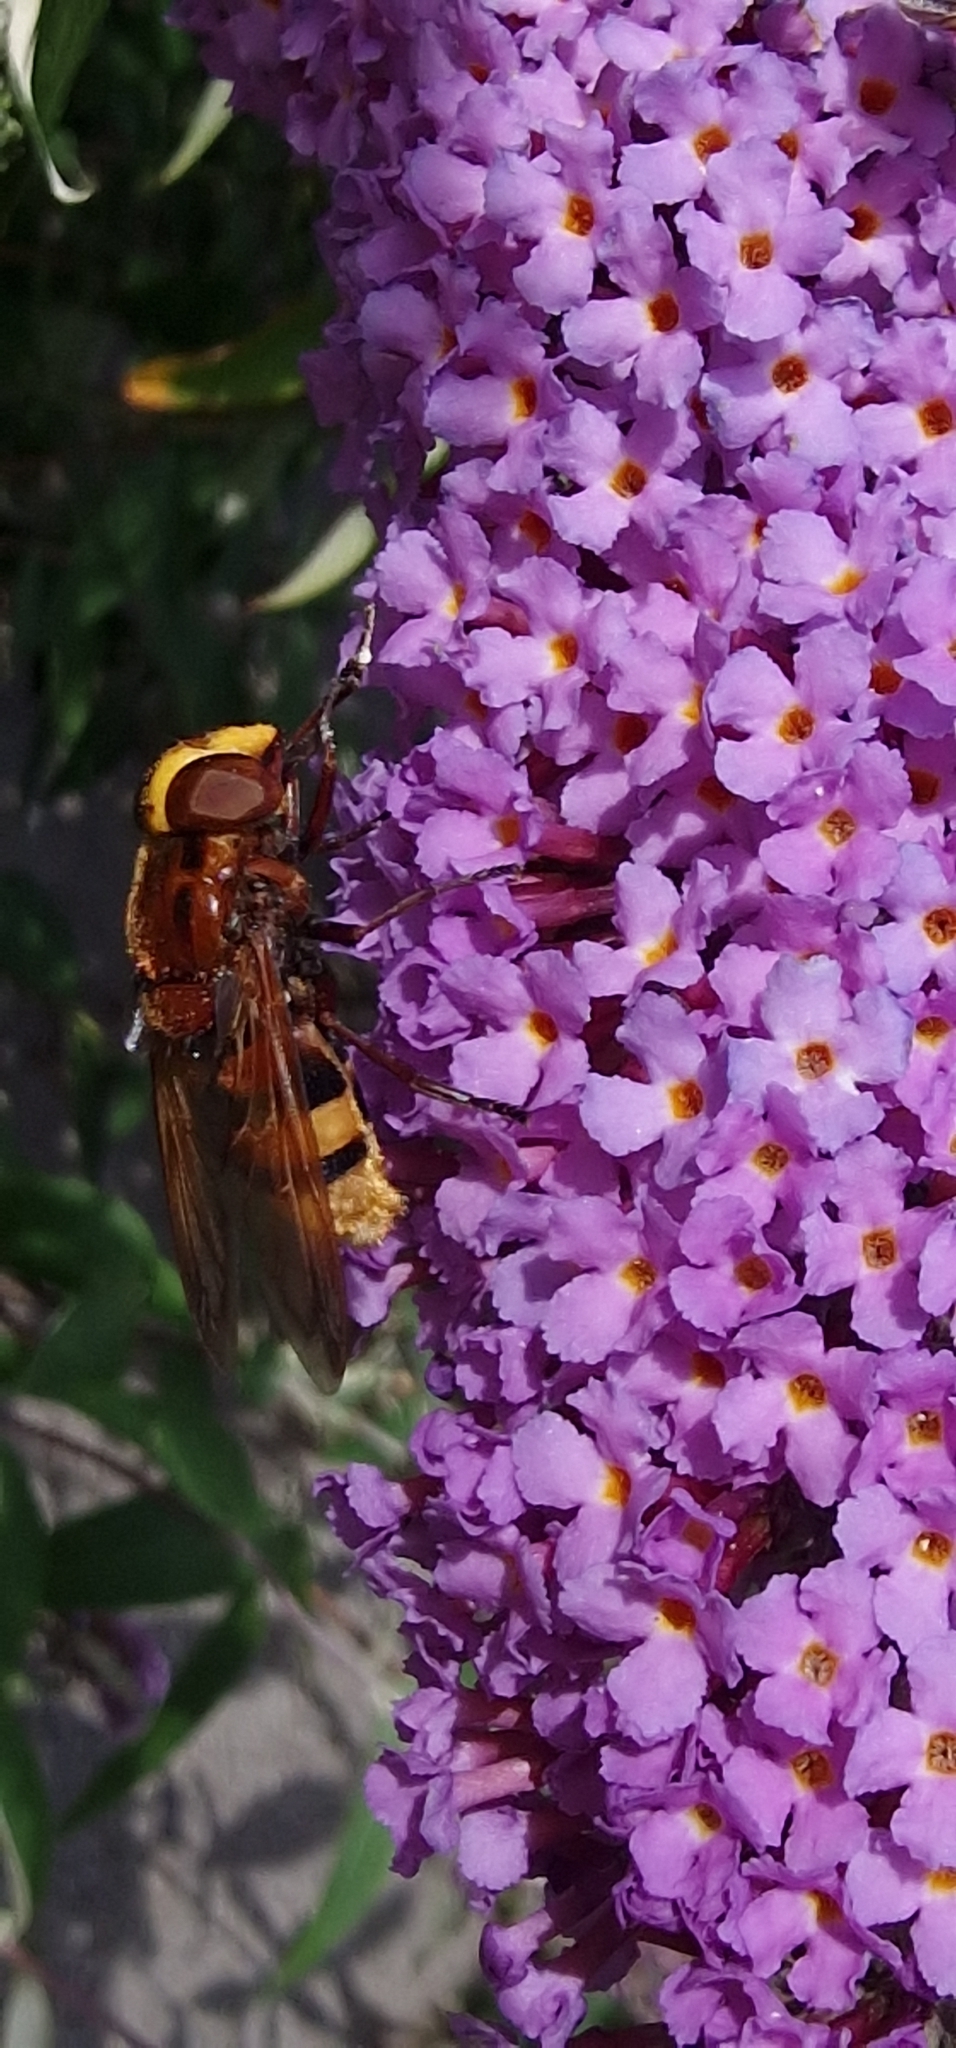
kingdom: Animalia
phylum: Arthropoda
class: Insecta
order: Diptera
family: Syrphidae
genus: Volucella
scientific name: Volucella zonaria
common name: Hornet hoverfly
